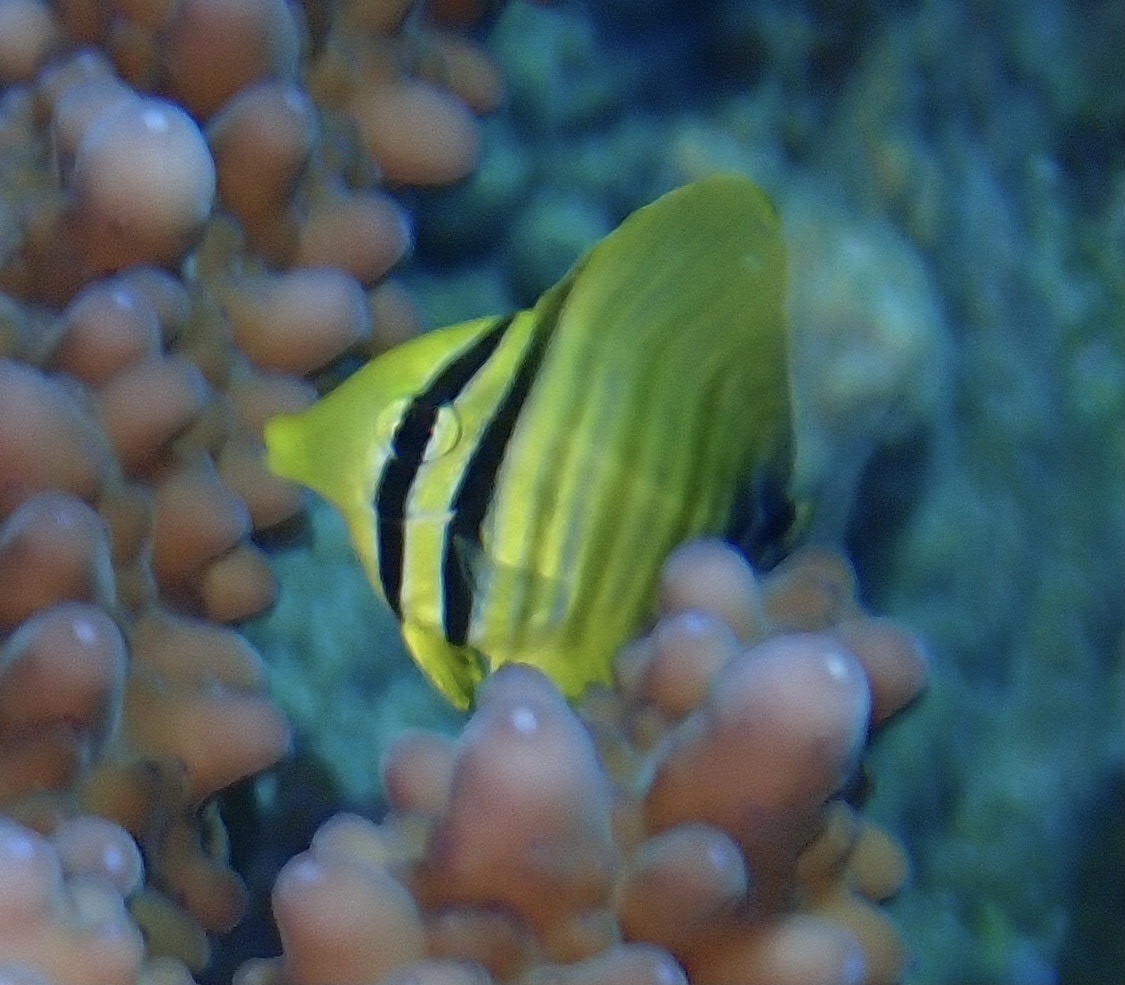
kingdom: Animalia
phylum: Chordata
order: Perciformes
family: Acanthuridae
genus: Zebrasoma
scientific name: Zebrasoma desjardinii
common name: Desjardin's sailfin tang
